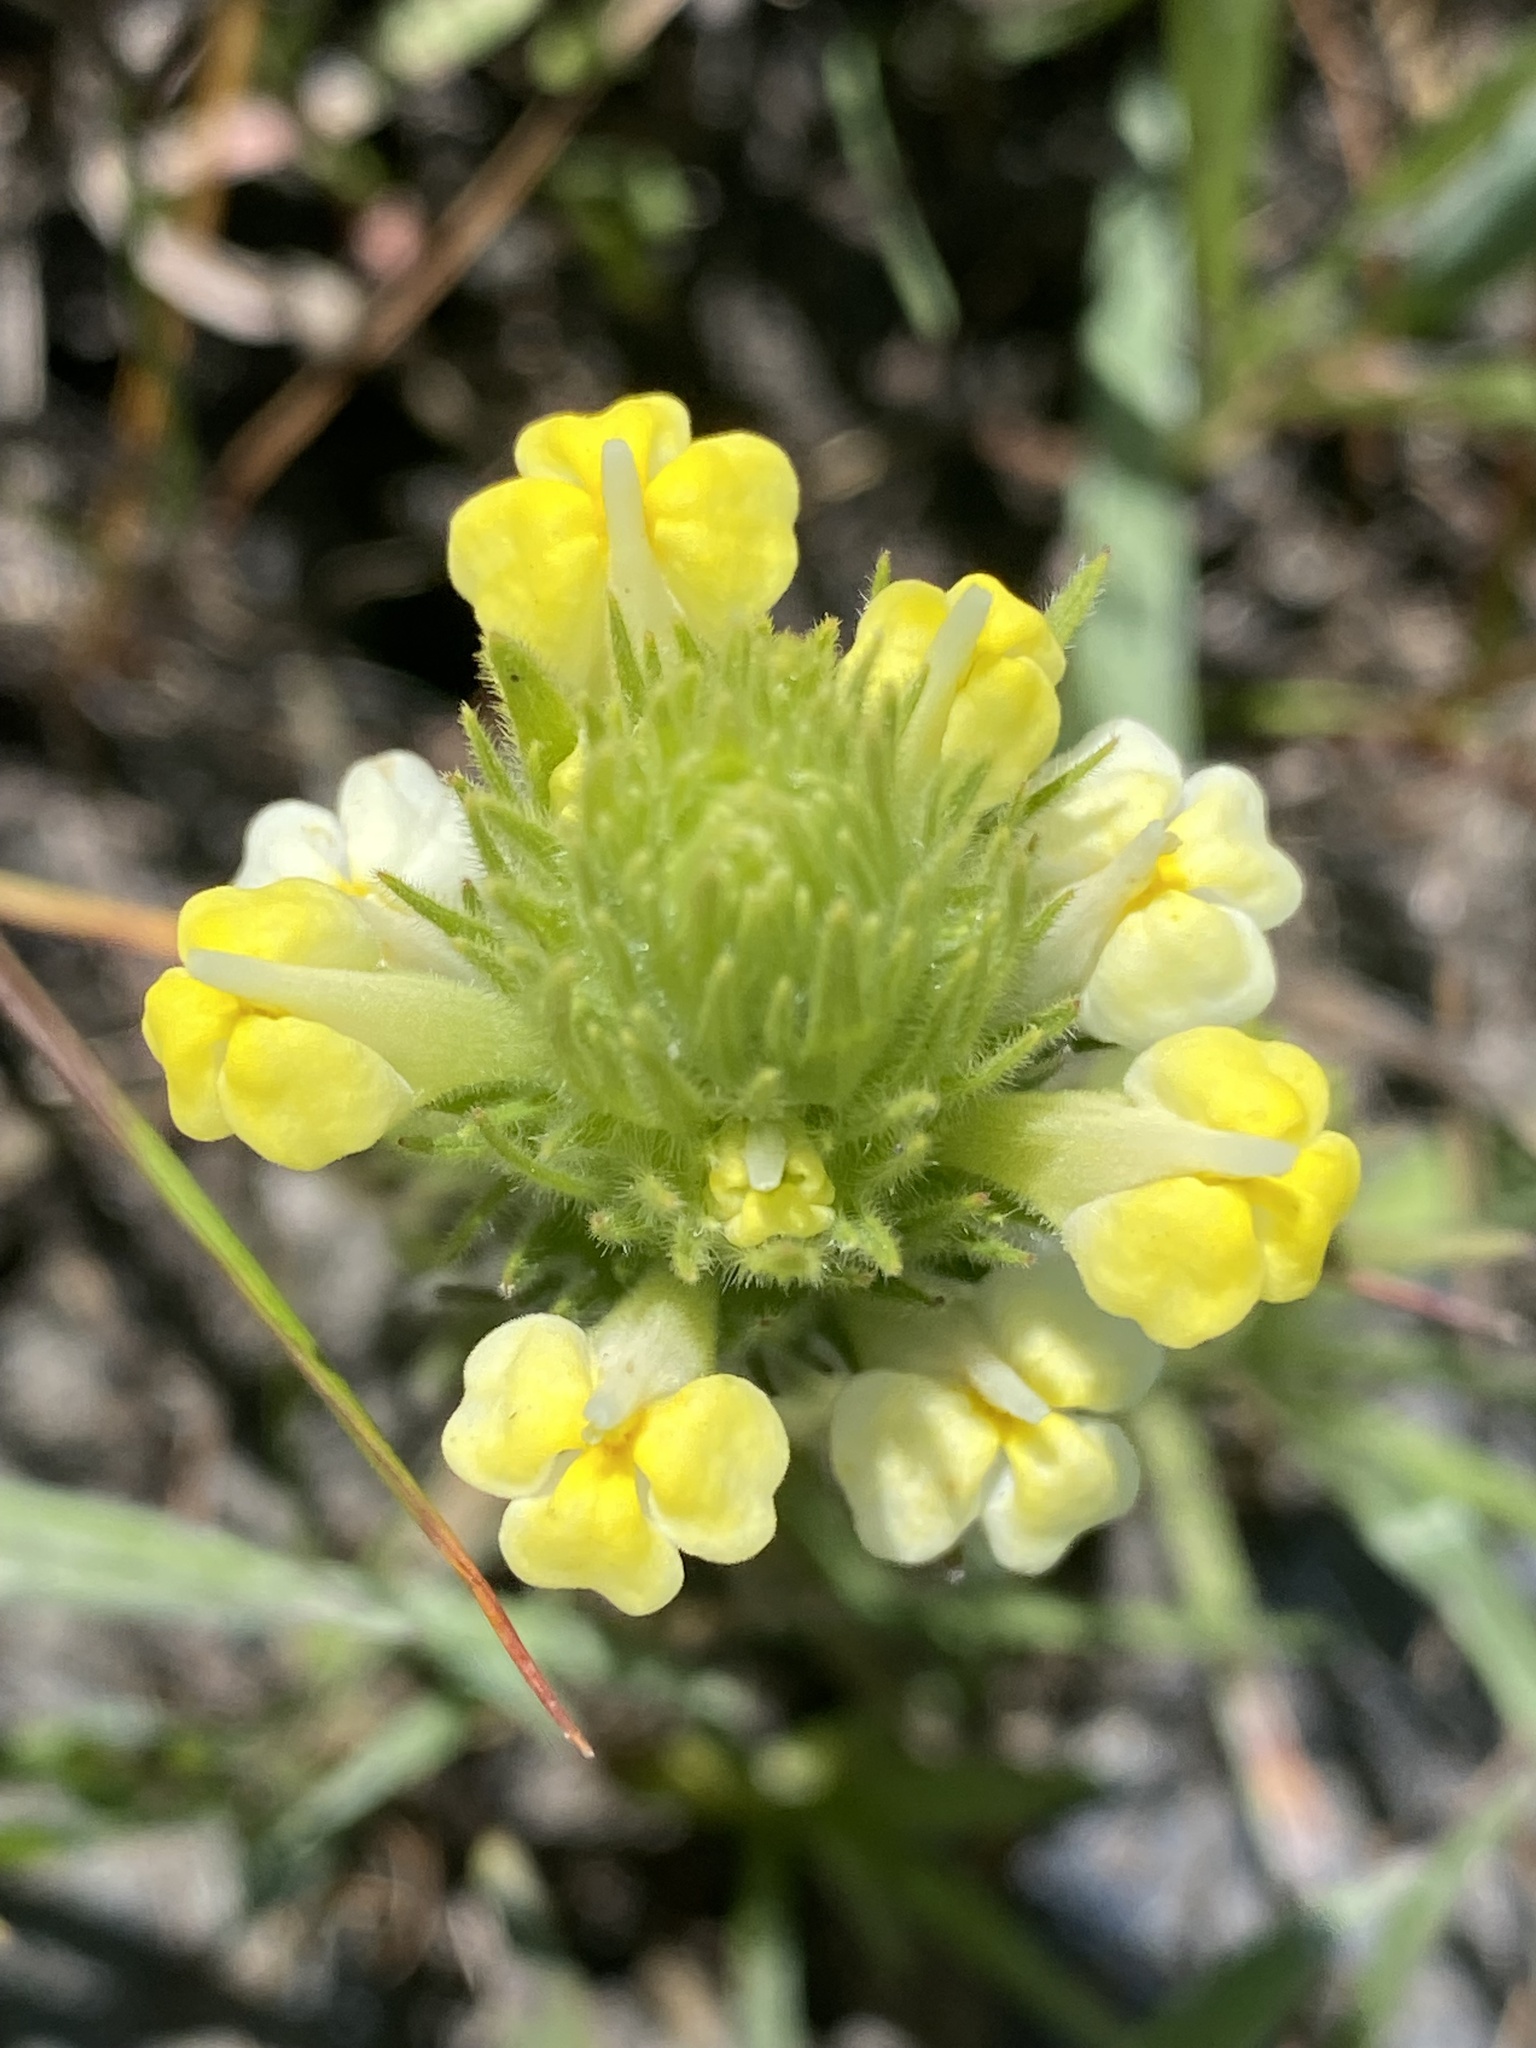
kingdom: Plantae
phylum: Tracheophyta
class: Magnoliopsida
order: Lamiales
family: Orobanchaceae
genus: Castilleja
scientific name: Castilleja rubicundula
